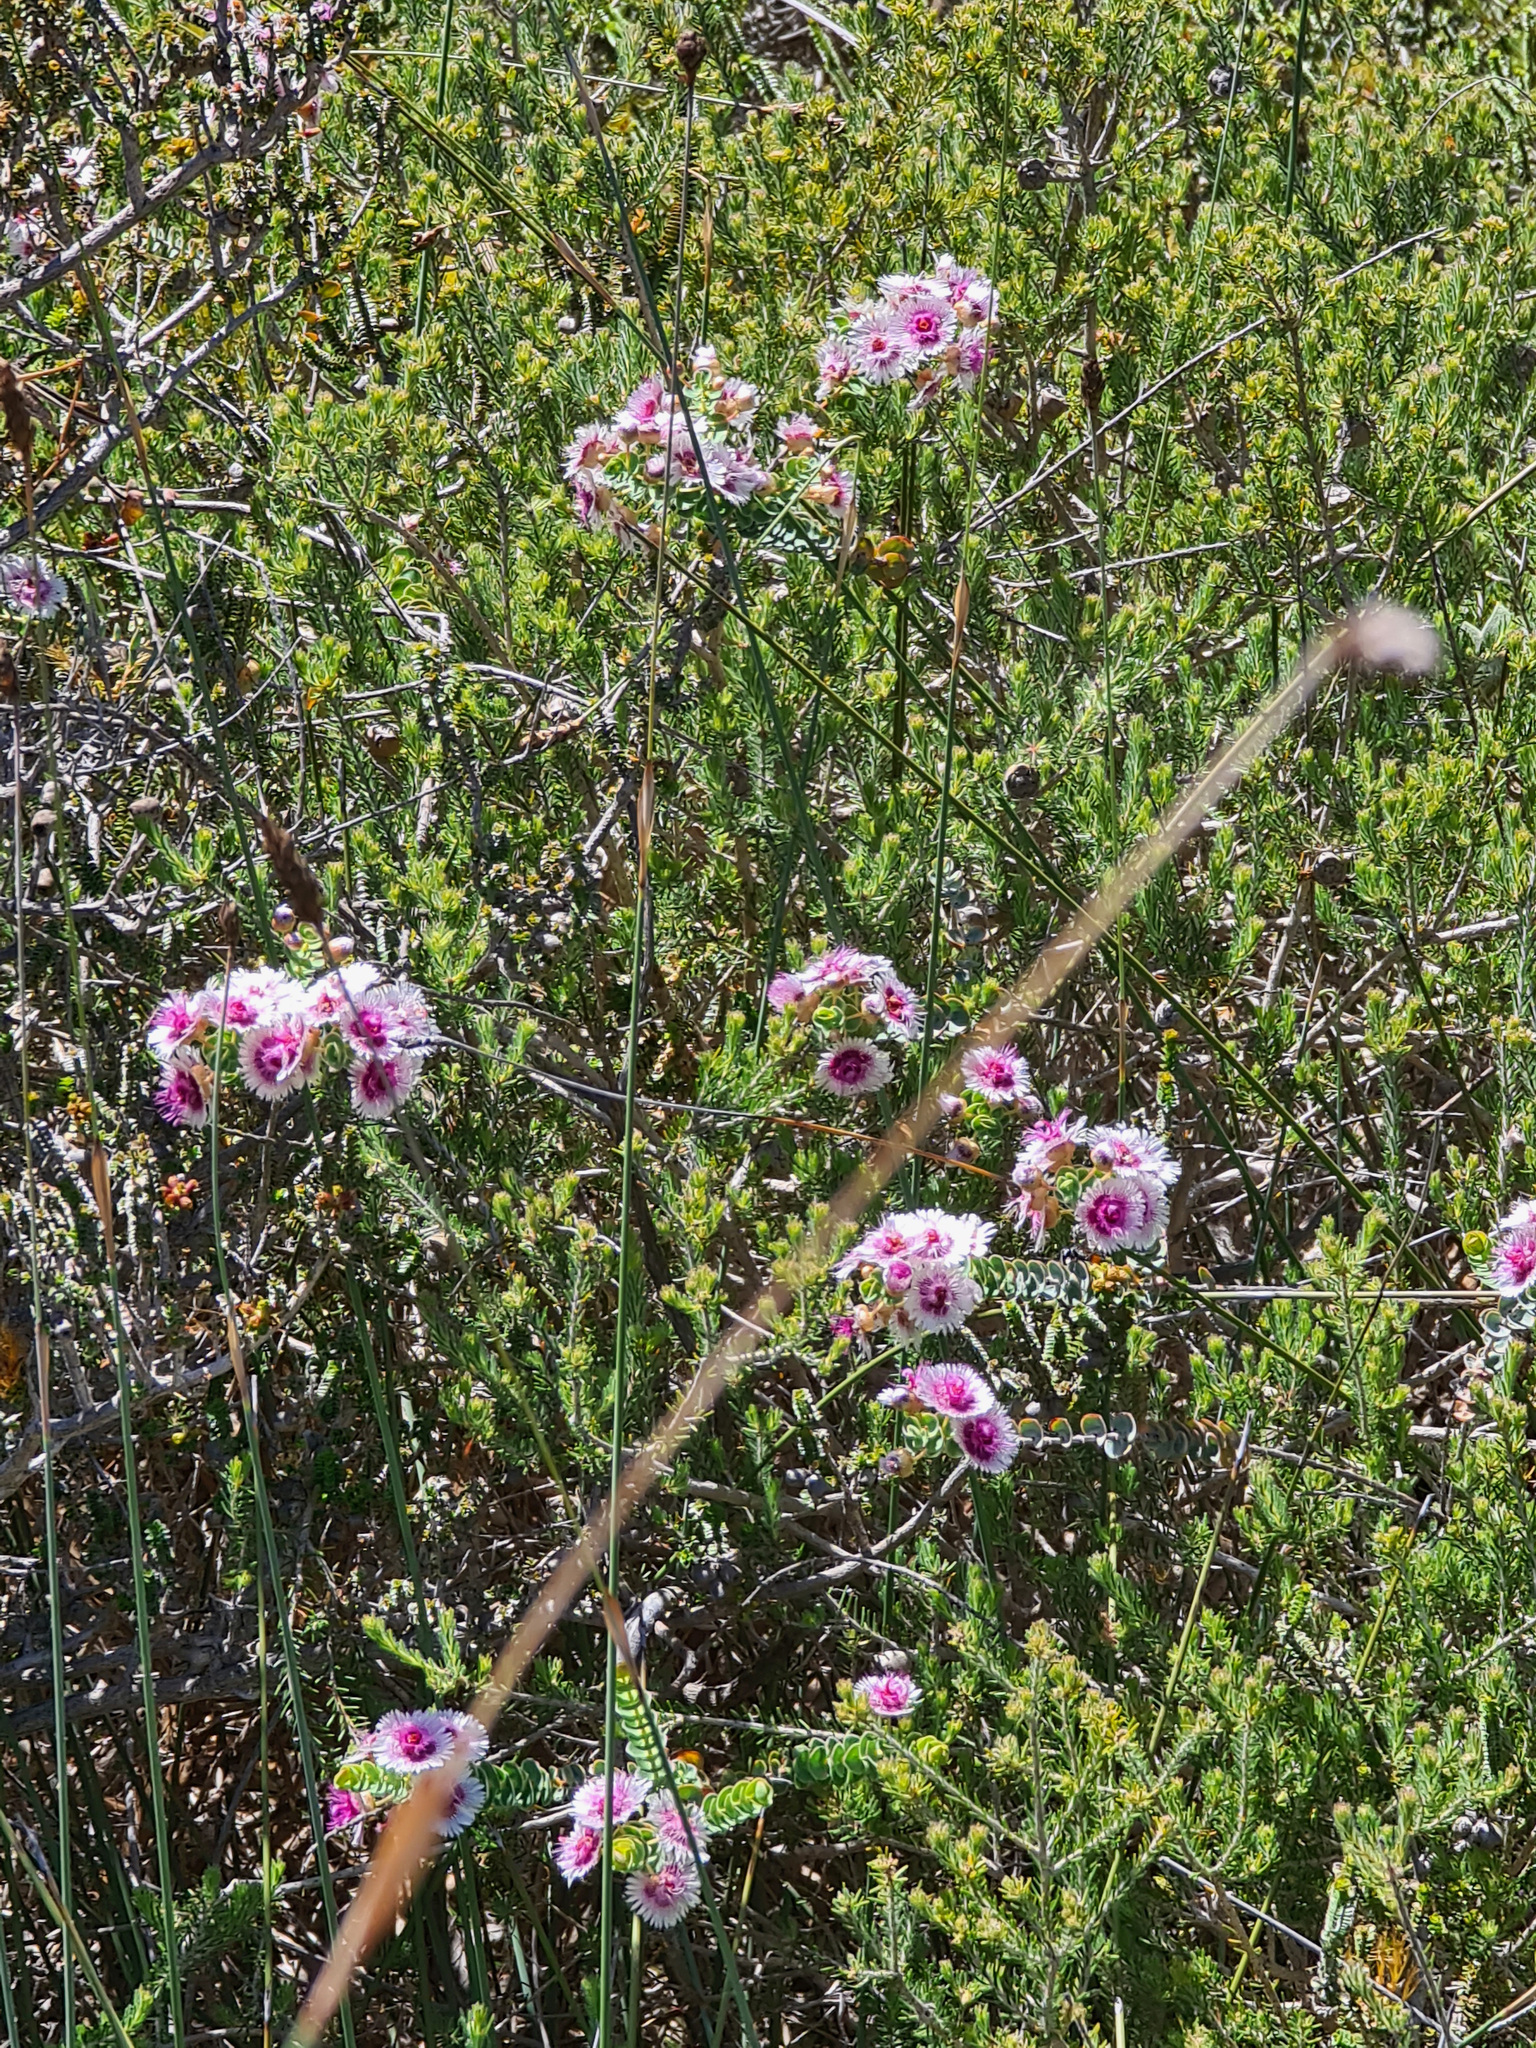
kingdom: Plantae
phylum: Tracheophyta
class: Magnoliopsida
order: Myrtales
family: Myrtaceae
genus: Verticordia
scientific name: Verticordia oculata
